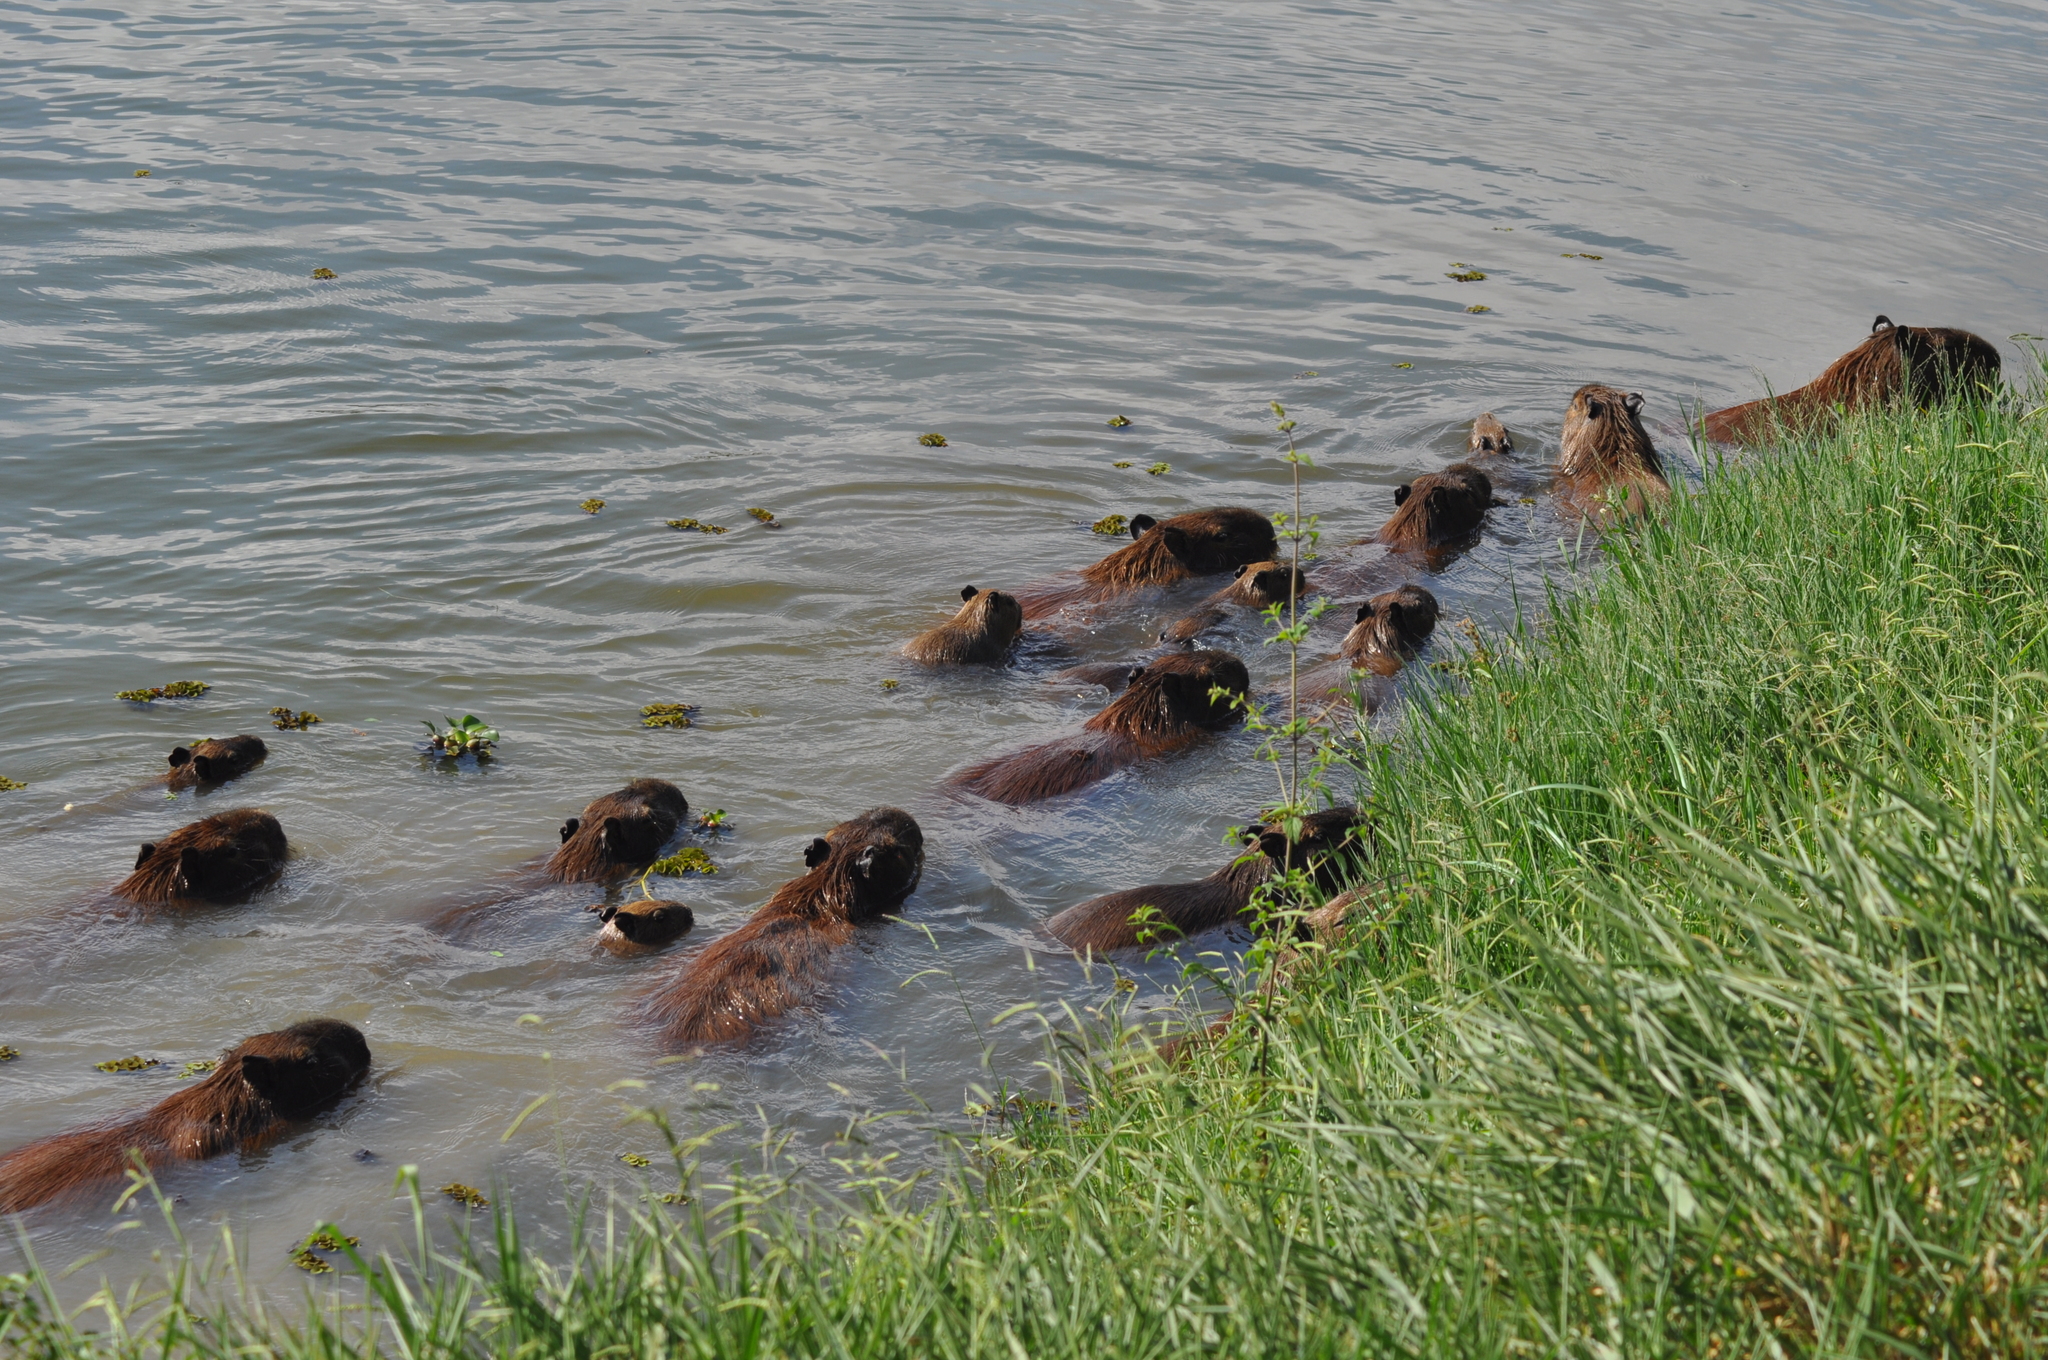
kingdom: Animalia
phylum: Chordata
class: Mammalia
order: Rodentia
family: Caviidae
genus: Hydrochoerus
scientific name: Hydrochoerus hydrochaeris
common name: Capybara
